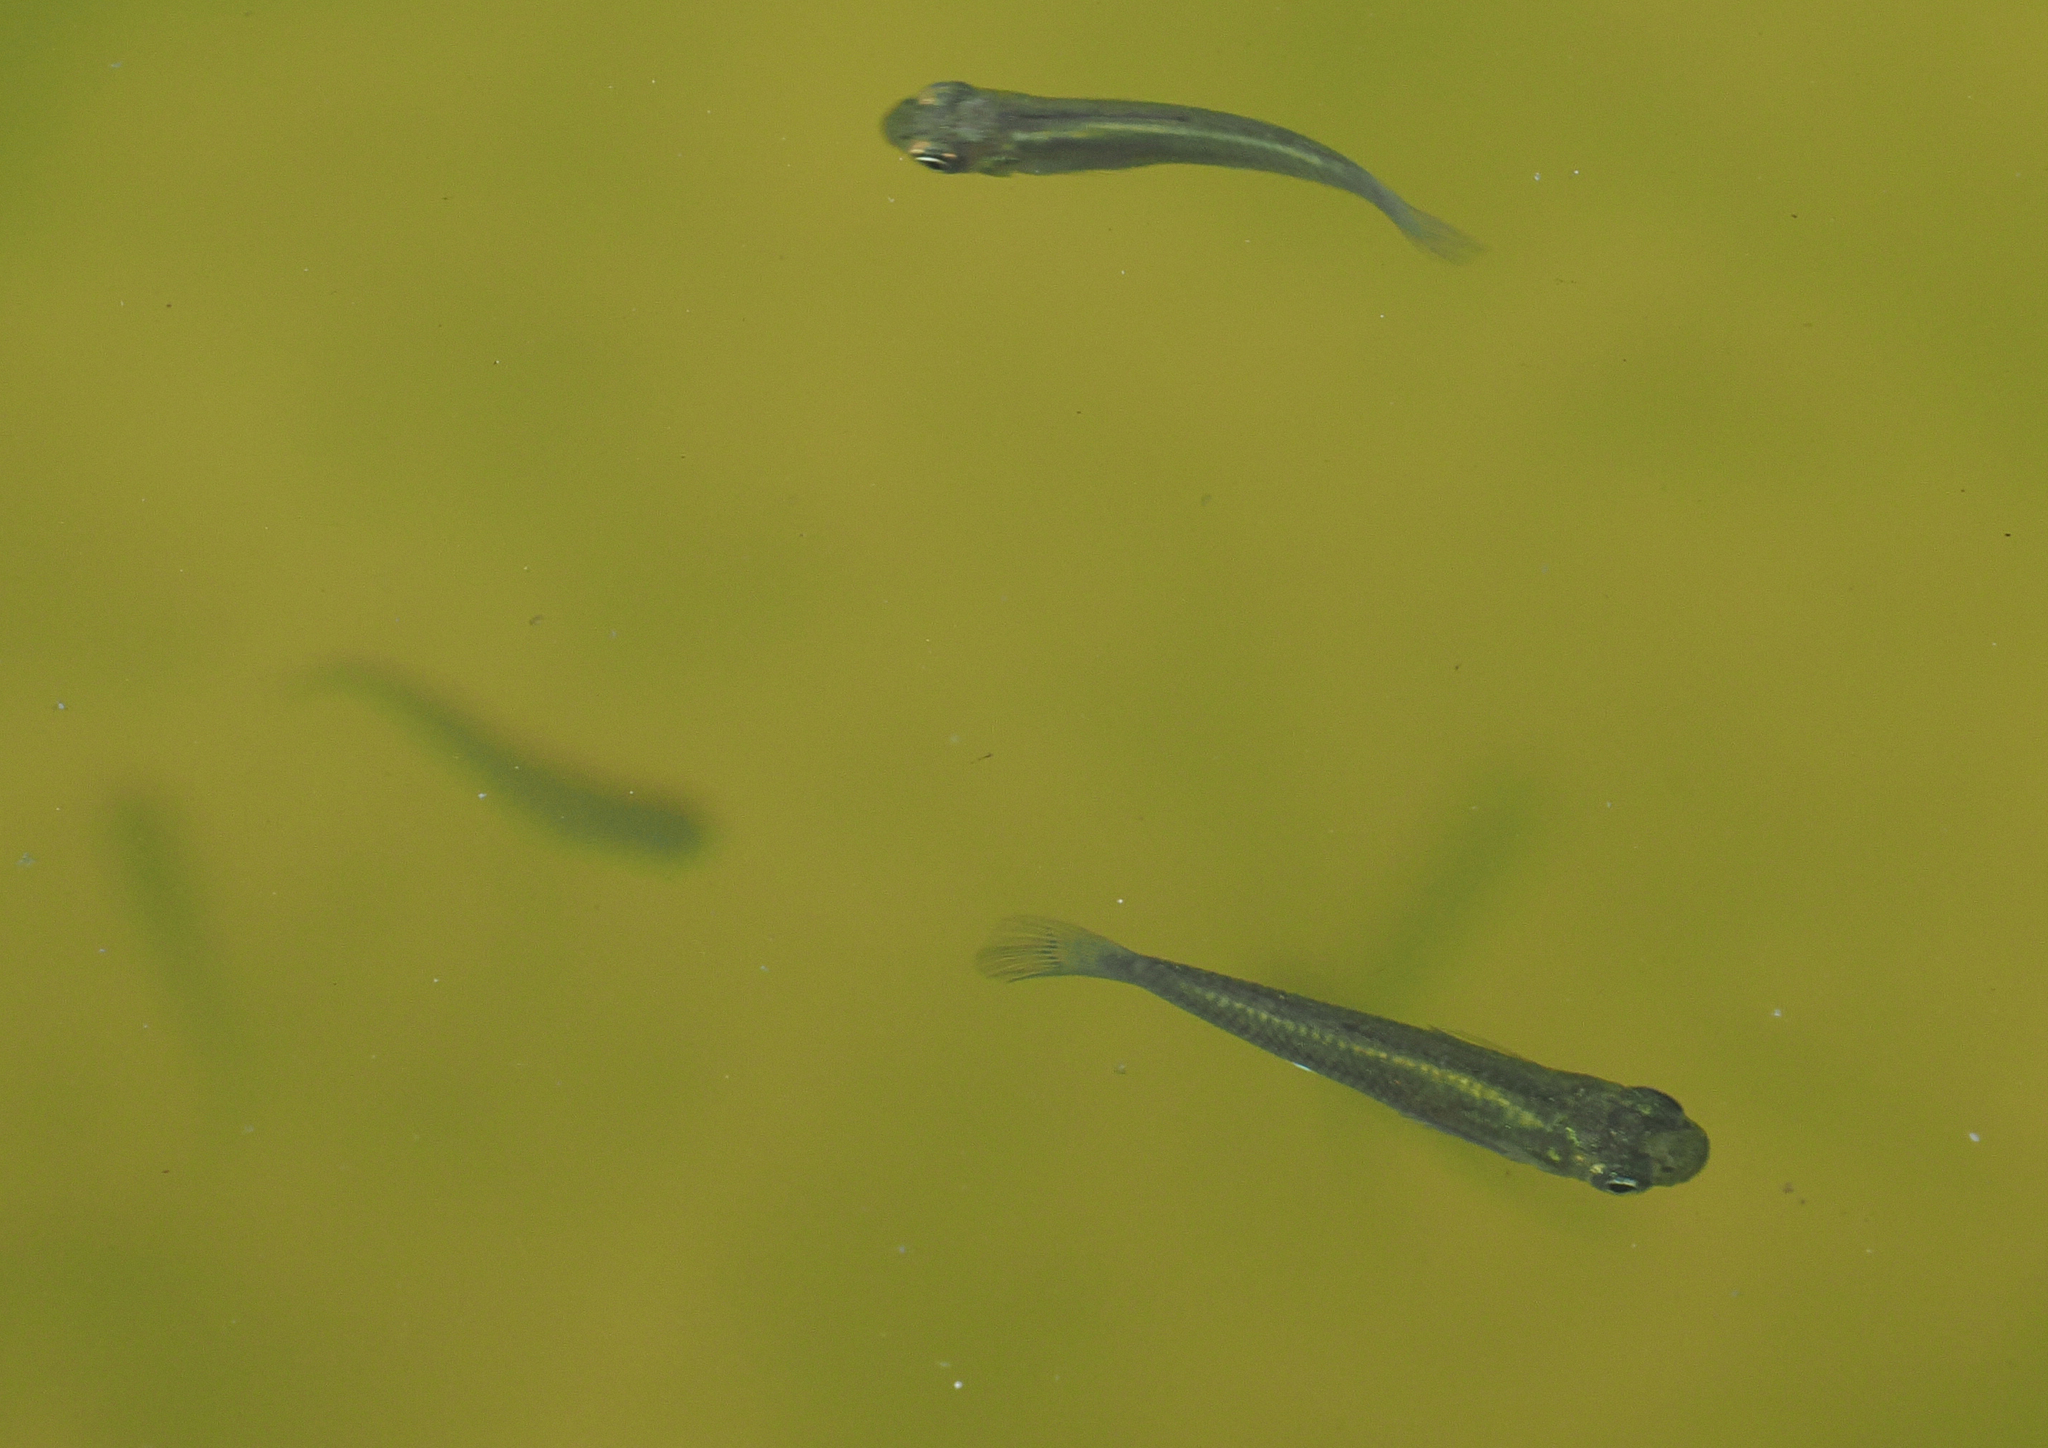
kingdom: Animalia
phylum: Chordata
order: Cyprinodontiformes
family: Poeciliidae
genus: Gambusia
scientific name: Gambusia holbrooki
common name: Eastern mosquitofish
